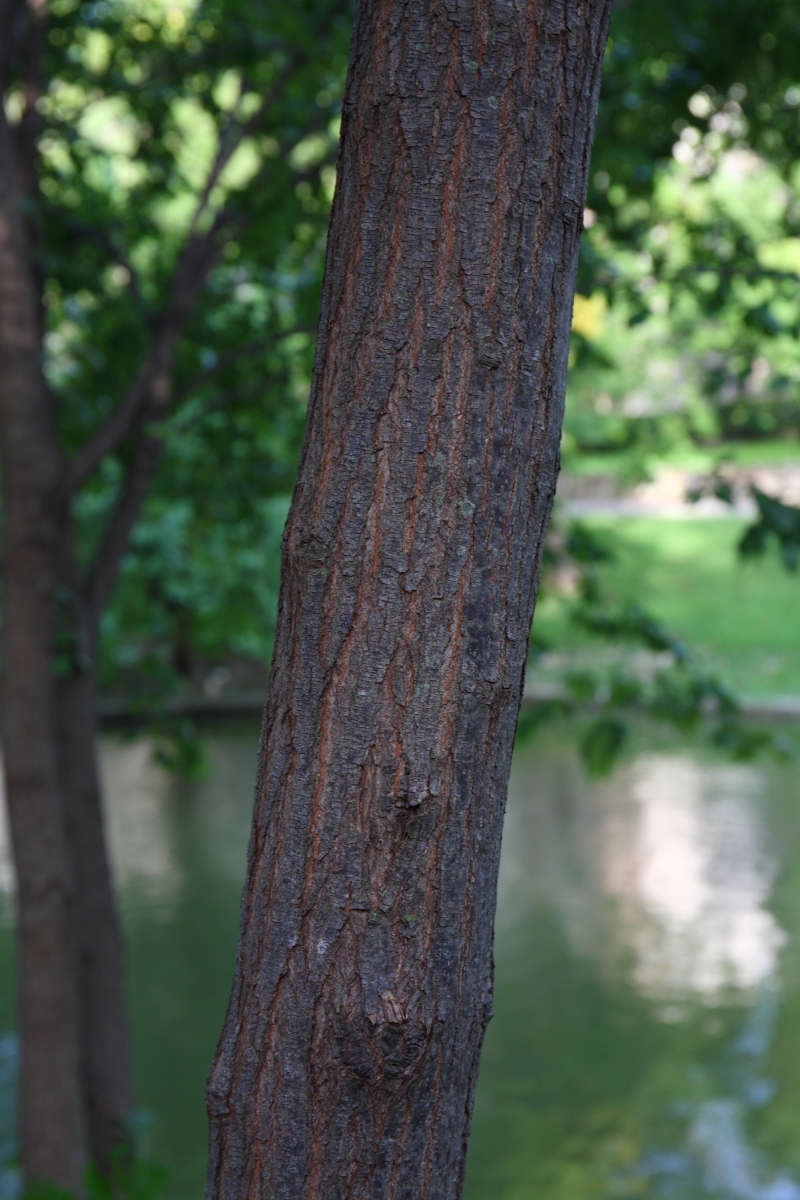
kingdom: Plantae
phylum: Tracheophyta
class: Magnoliopsida
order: Sapindales
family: Meliaceae
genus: Melia
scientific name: Melia azedarach
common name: Chinaberrytree
